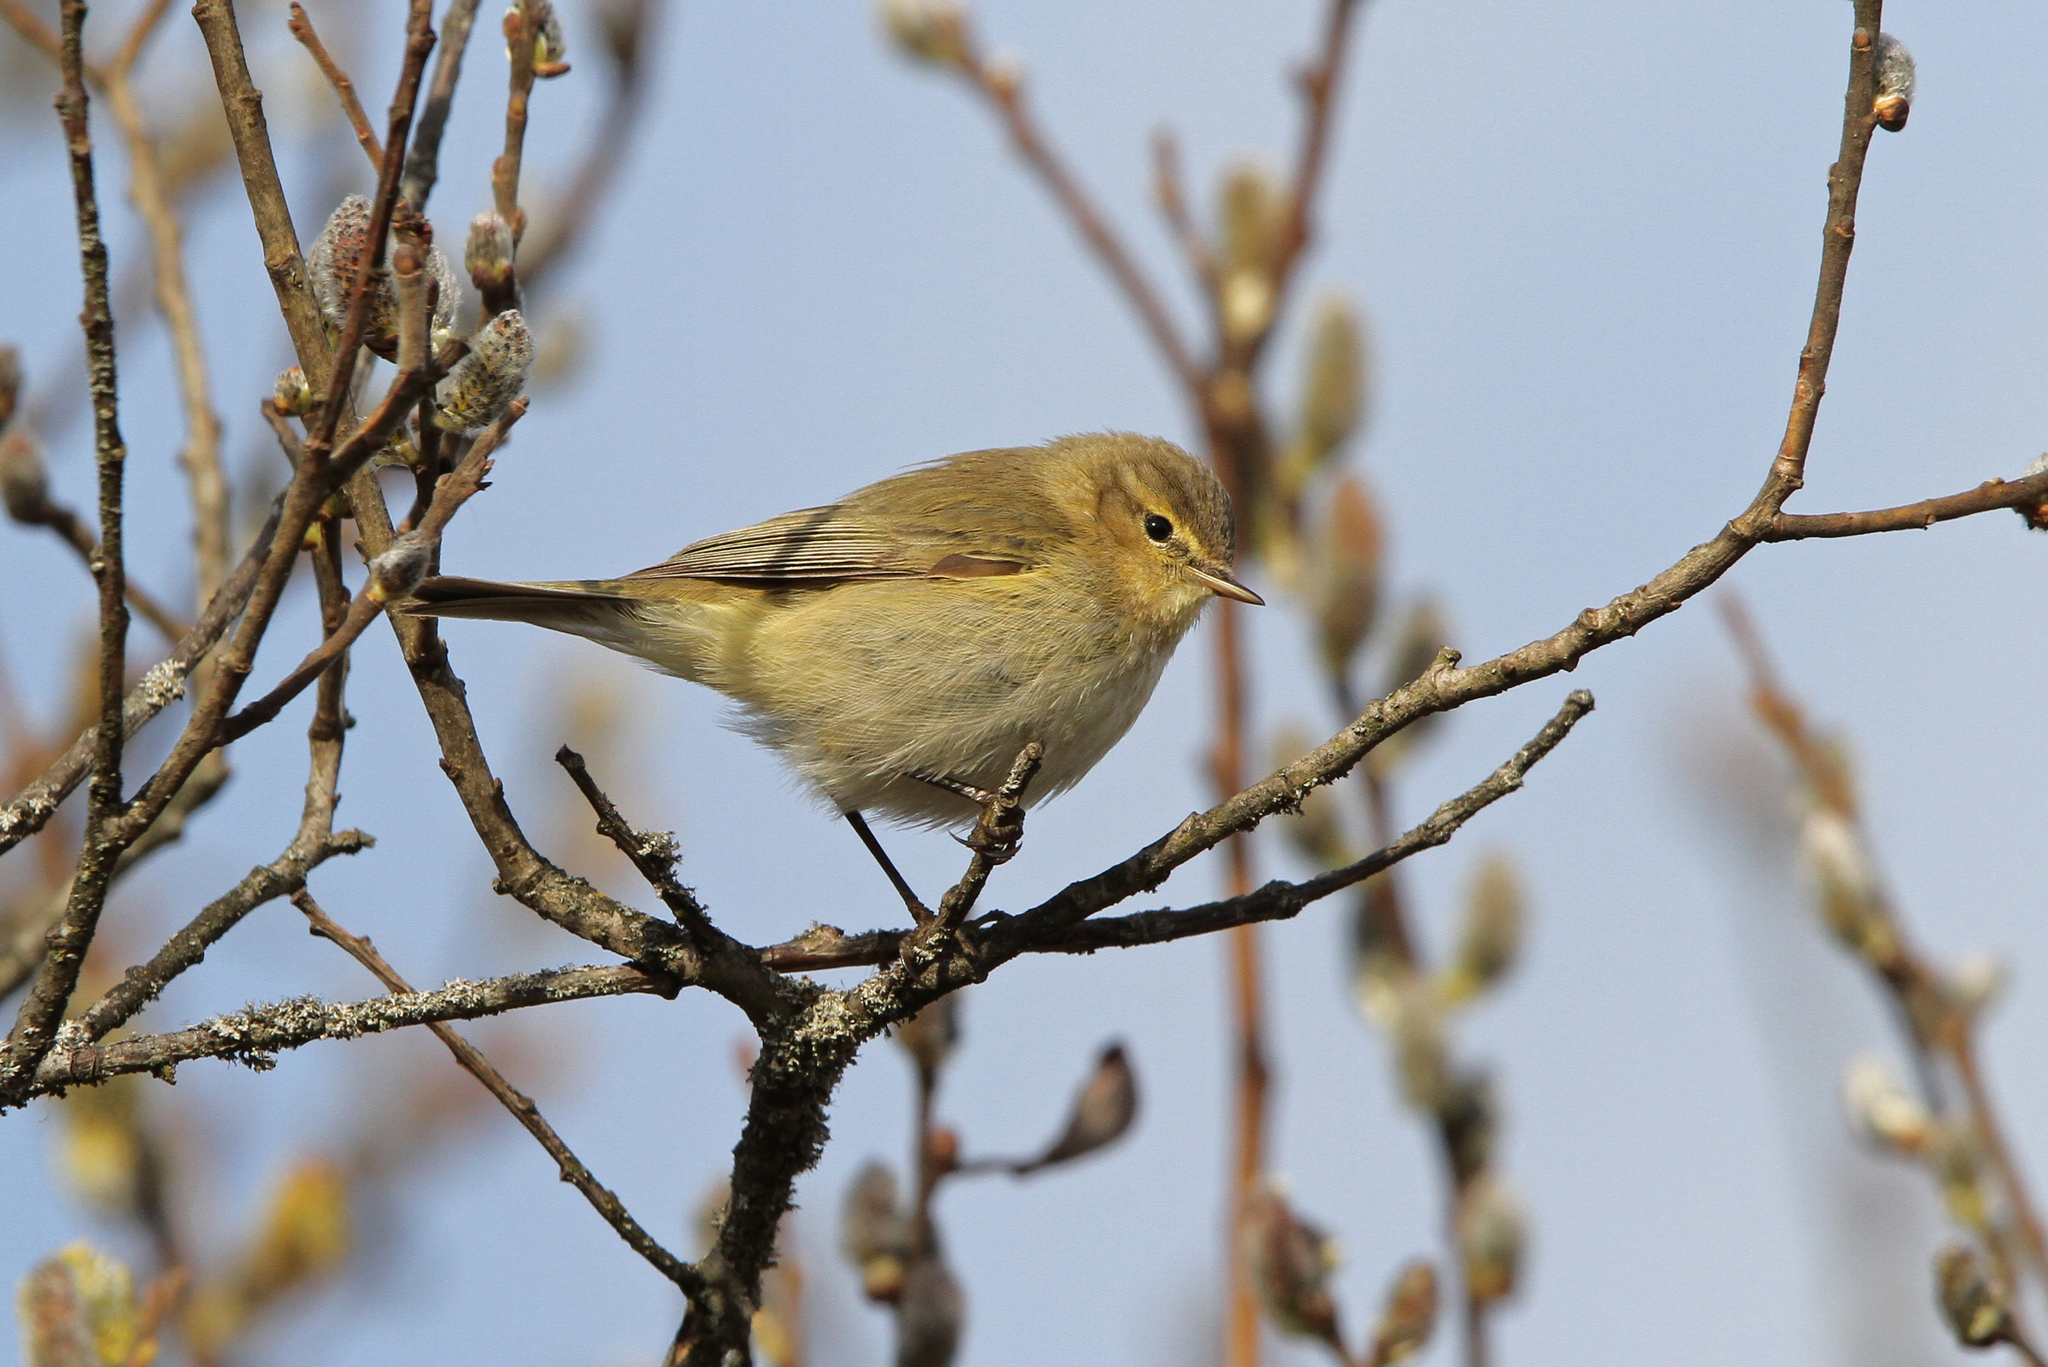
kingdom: Animalia
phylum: Chordata
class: Aves
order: Passeriformes
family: Phylloscopidae
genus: Phylloscopus
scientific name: Phylloscopus trochilus
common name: Willow warbler
